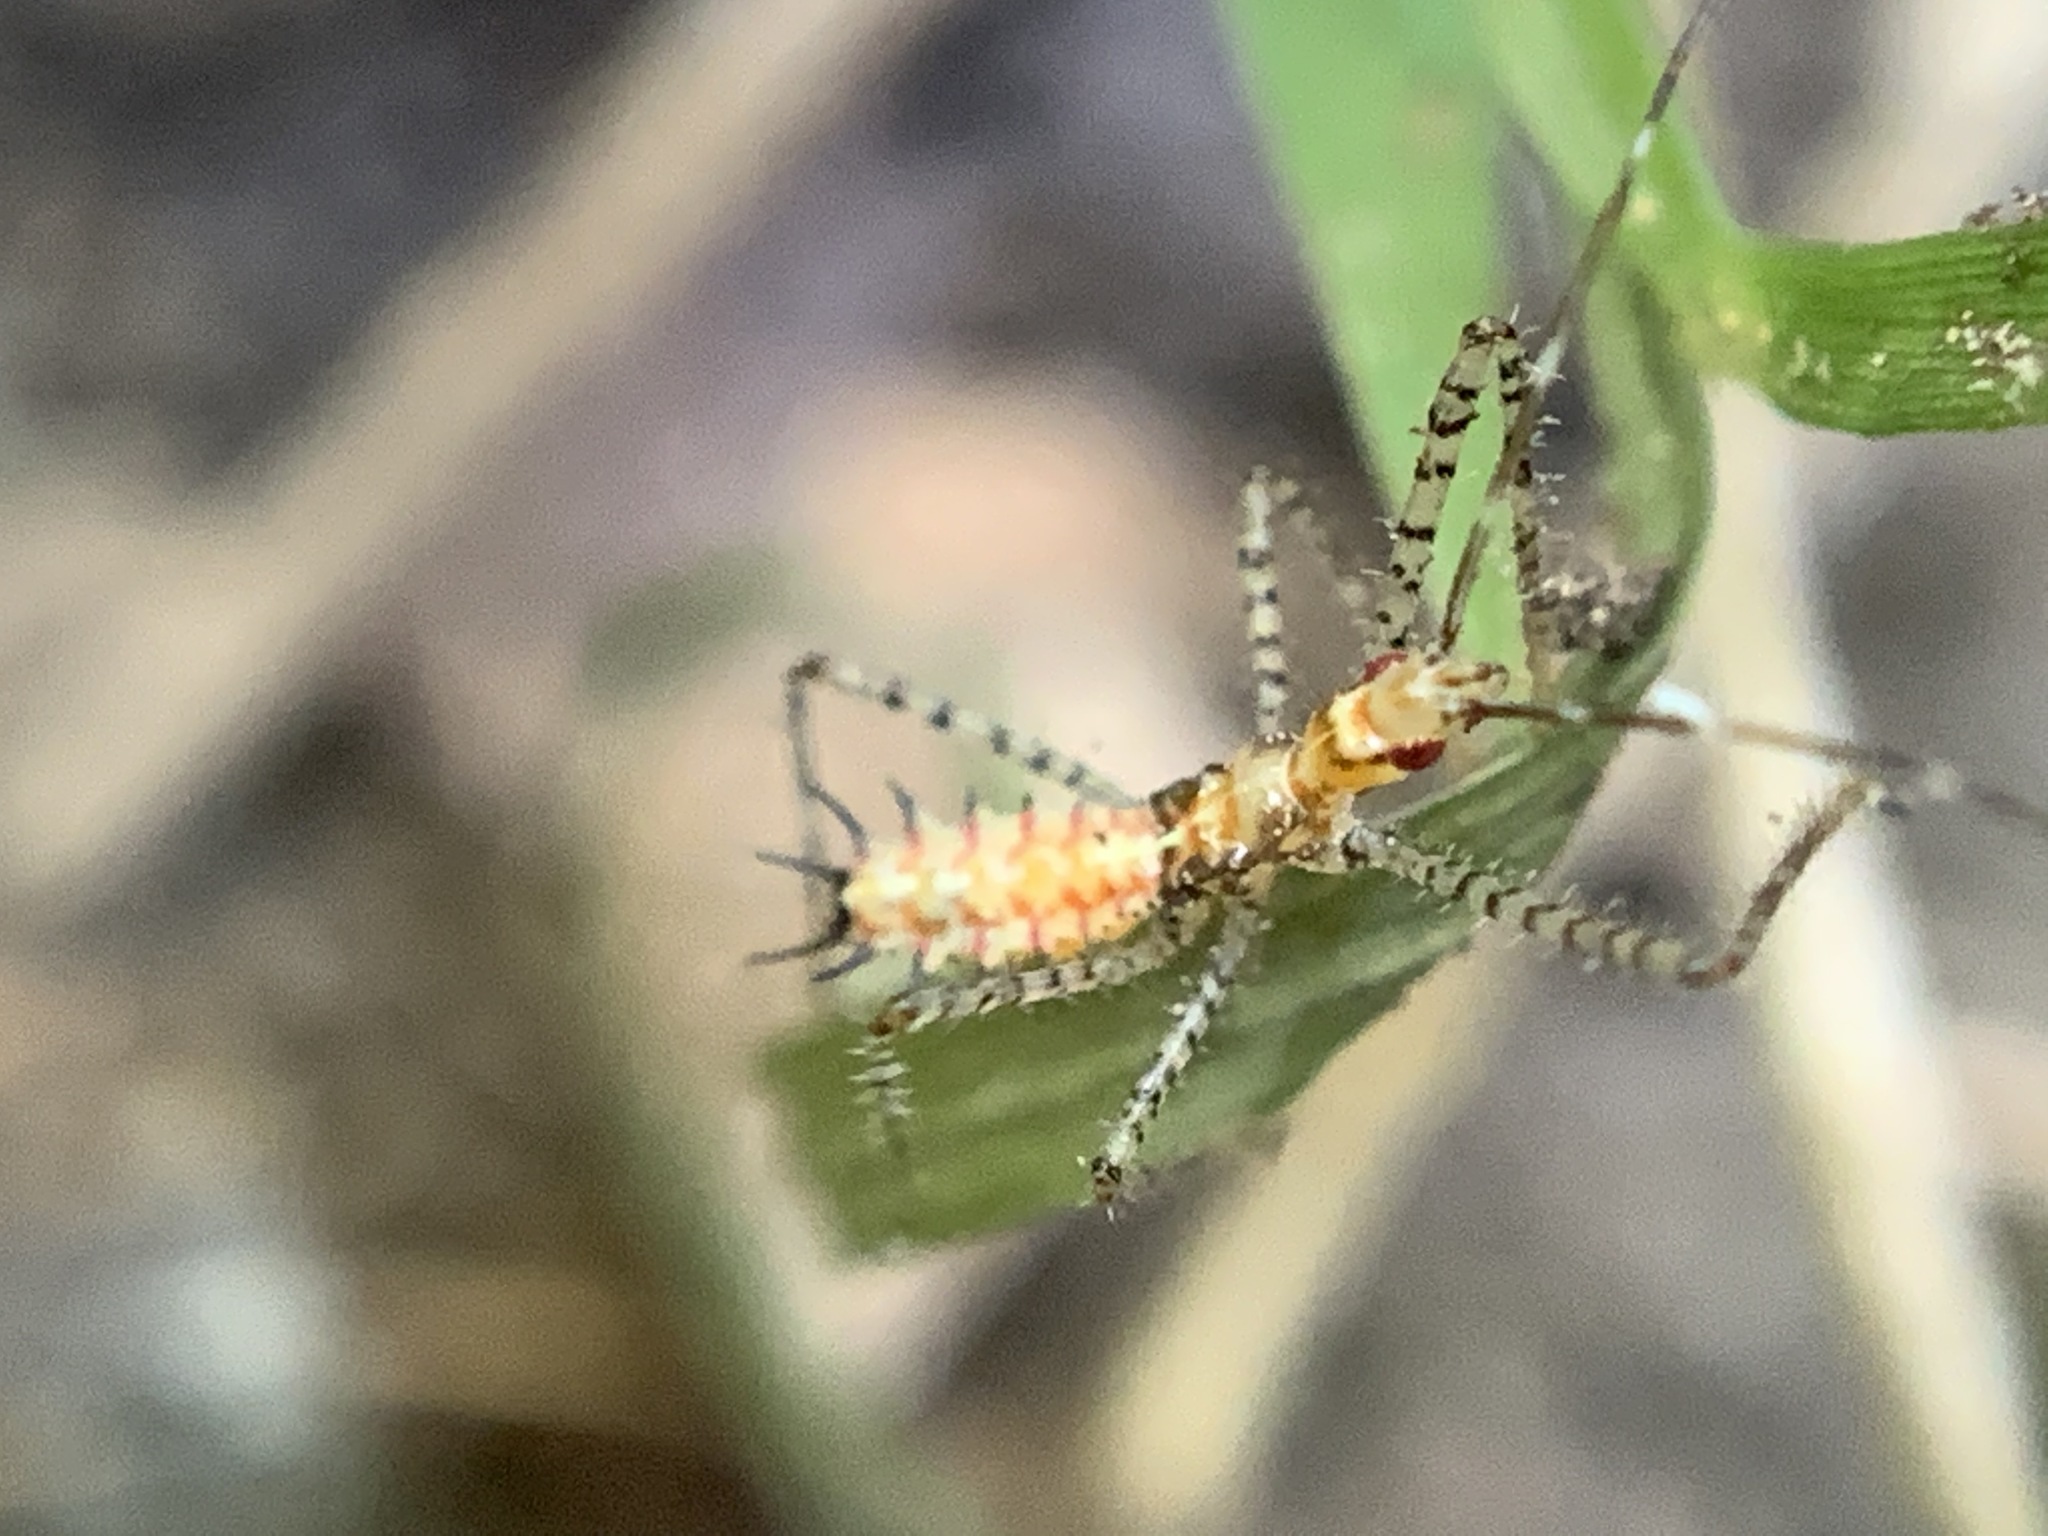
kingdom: Animalia
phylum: Arthropoda
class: Insecta
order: Hemiptera
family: Reduviidae
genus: Zelus
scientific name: Zelus renardii
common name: Assassin bug
